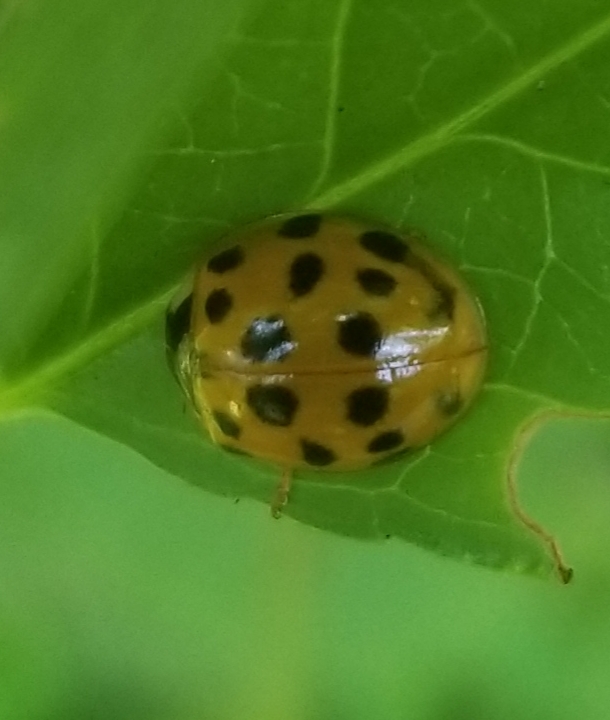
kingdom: Animalia
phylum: Arthropoda
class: Insecta
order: Coleoptera
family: Coccinellidae
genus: Harmonia
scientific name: Harmonia axyridis
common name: Harlequin ladybird
